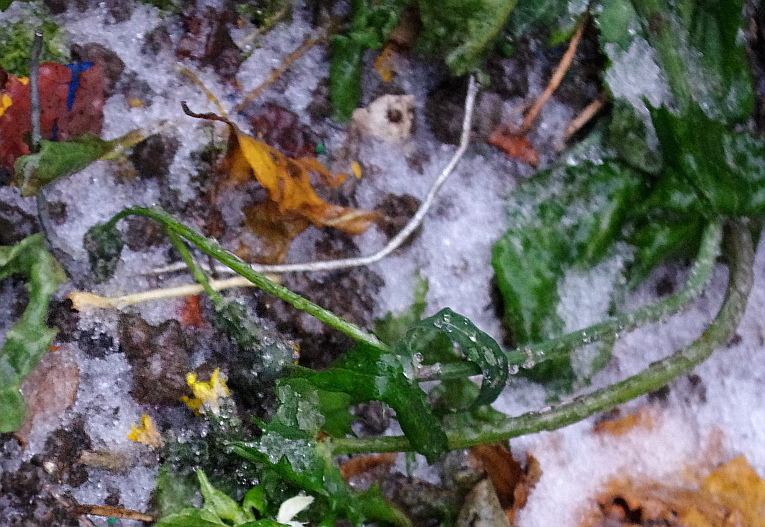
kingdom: Plantae
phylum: Tracheophyta
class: Magnoliopsida
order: Asterales
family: Asteraceae
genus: Sonchus
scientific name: Sonchus oleraceus
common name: Common sowthistle
